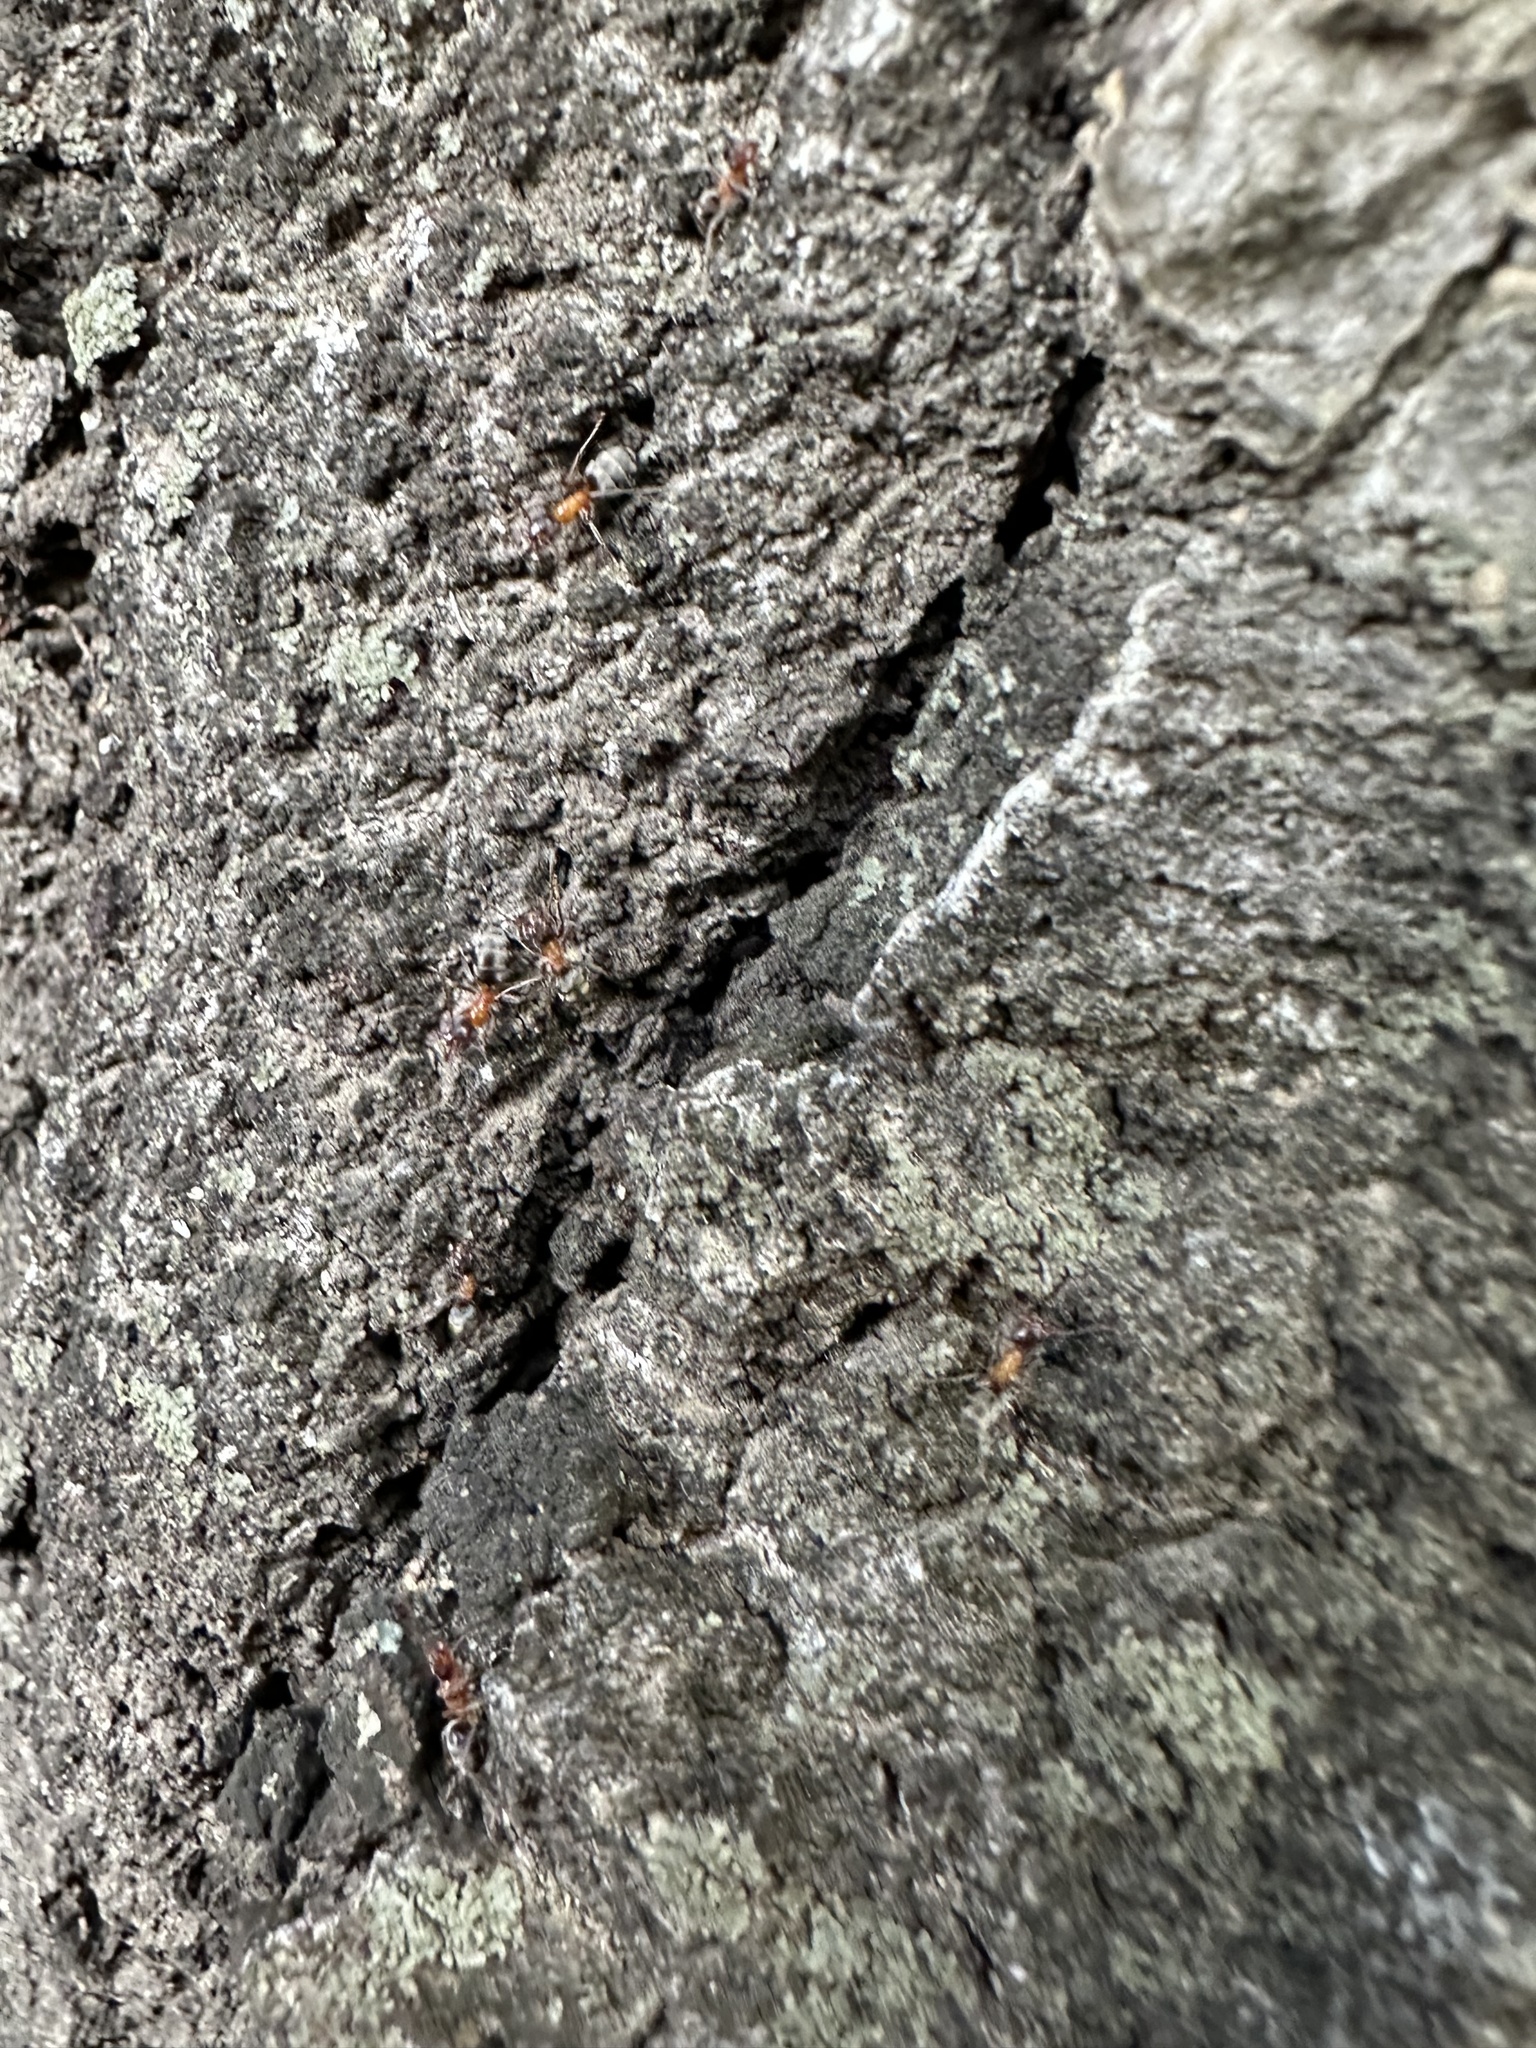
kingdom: Animalia
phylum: Arthropoda
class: Insecta
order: Hymenoptera
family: Formicidae
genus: Liometopum
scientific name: Liometopum occidentale
